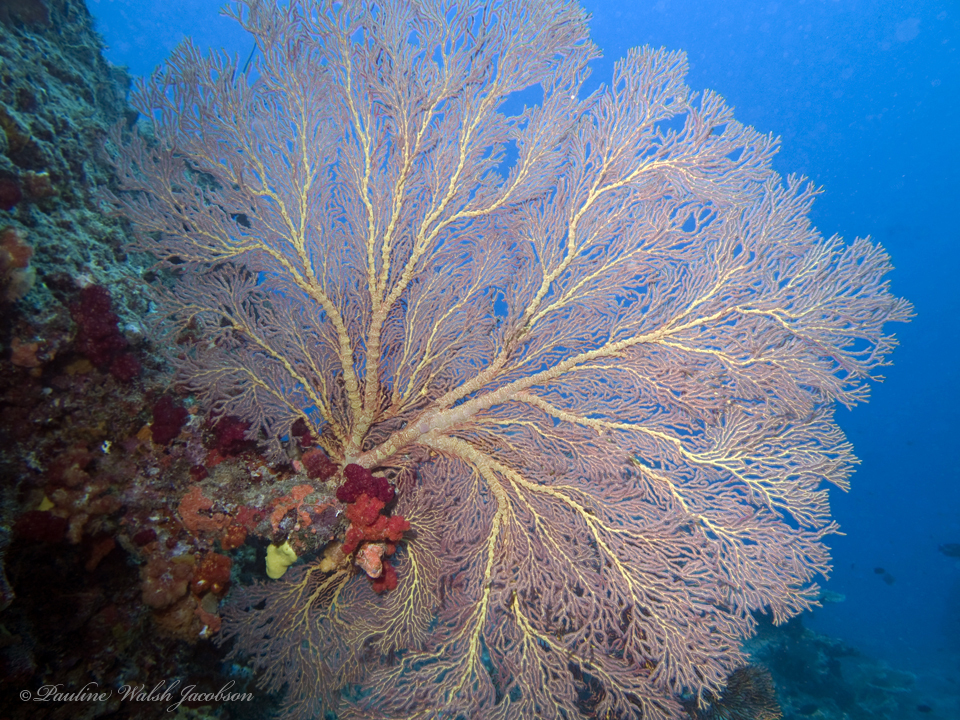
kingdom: Animalia
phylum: Cnidaria
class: Anthozoa
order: Malacalcyonacea
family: Melithaeidae
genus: Melithaea
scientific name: Melithaea ochracea
